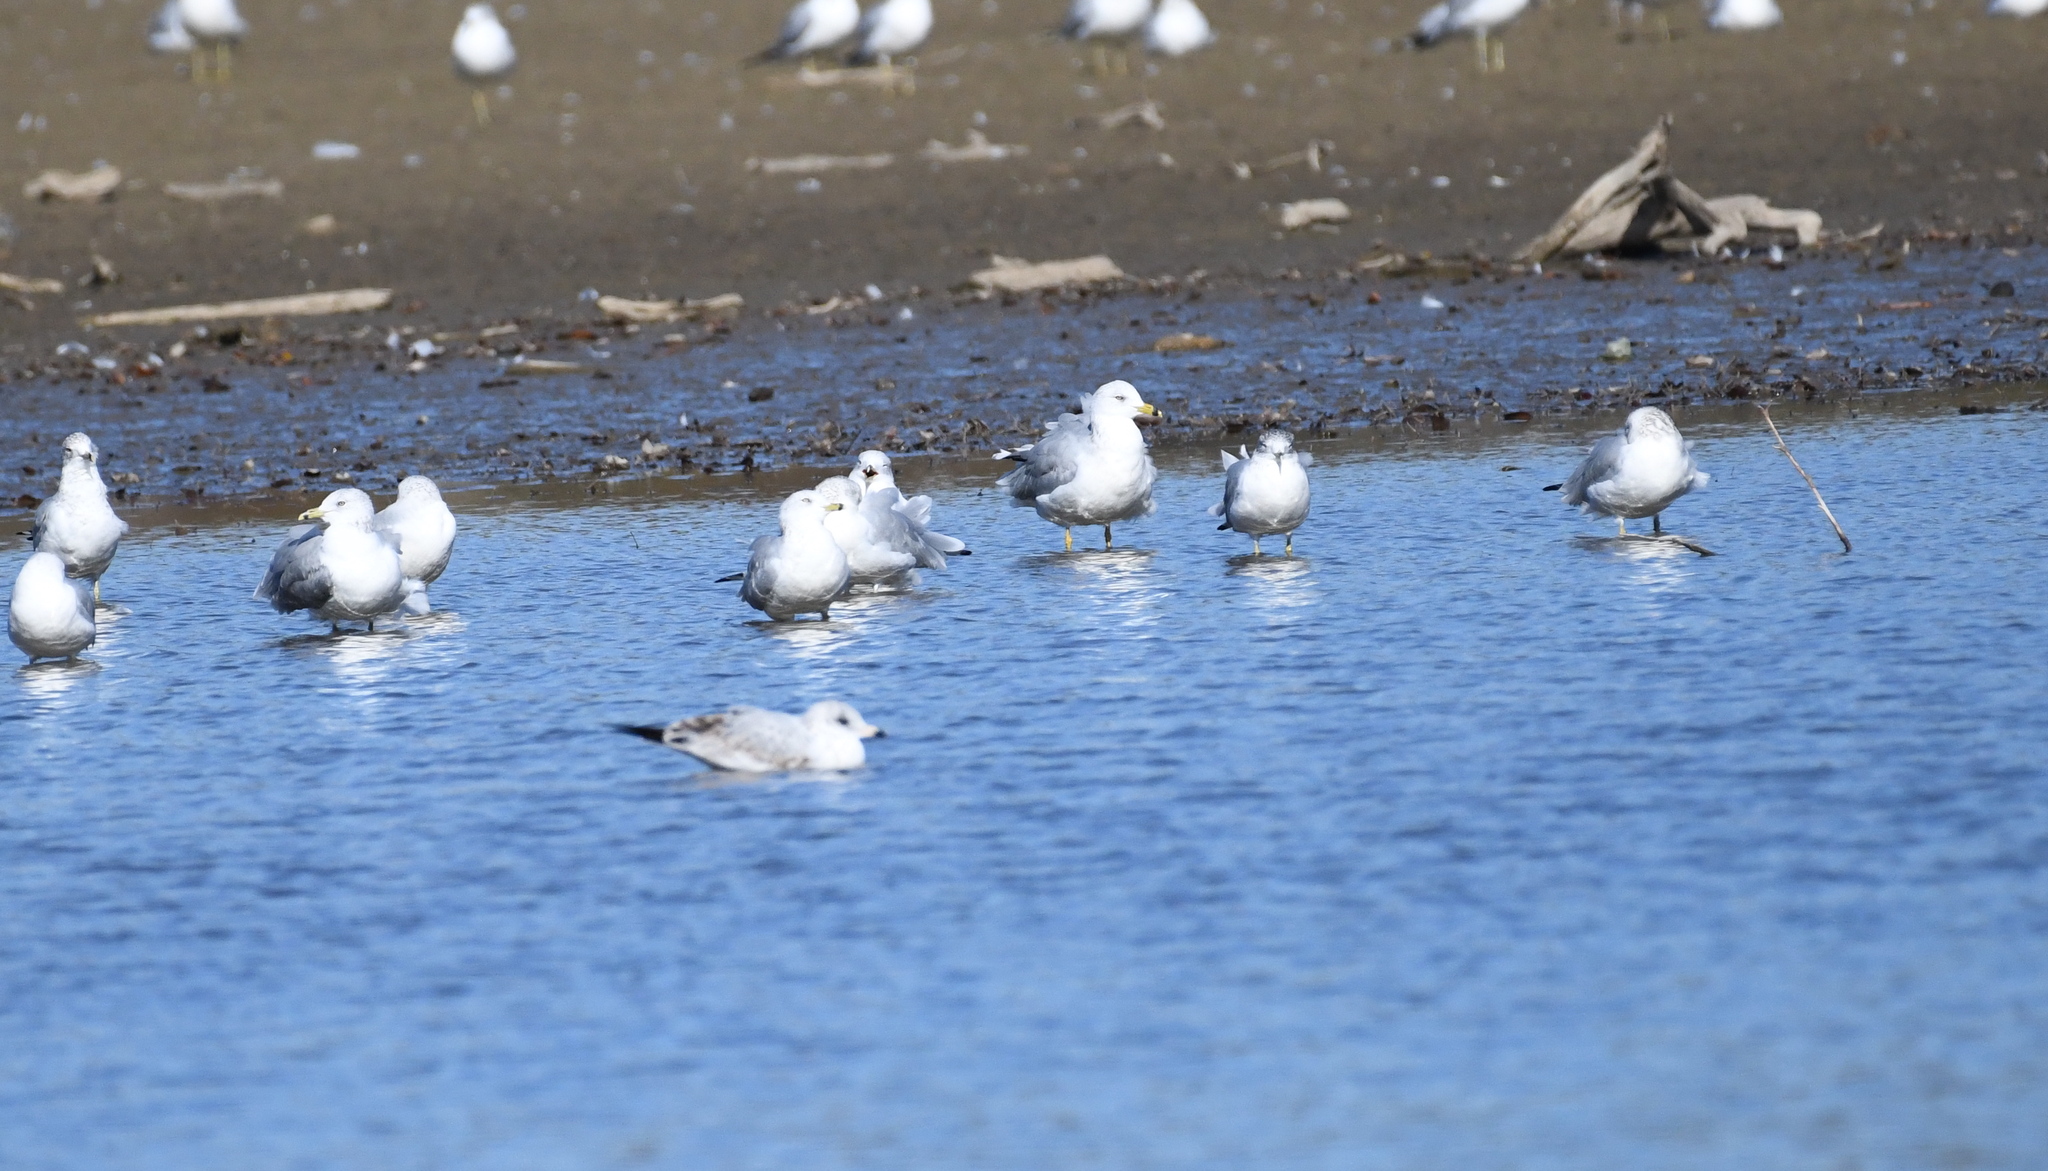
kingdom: Animalia
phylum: Chordata
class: Aves
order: Charadriiformes
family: Laridae
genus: Larus
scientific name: Larus delawarensis
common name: Ring-billed gull
